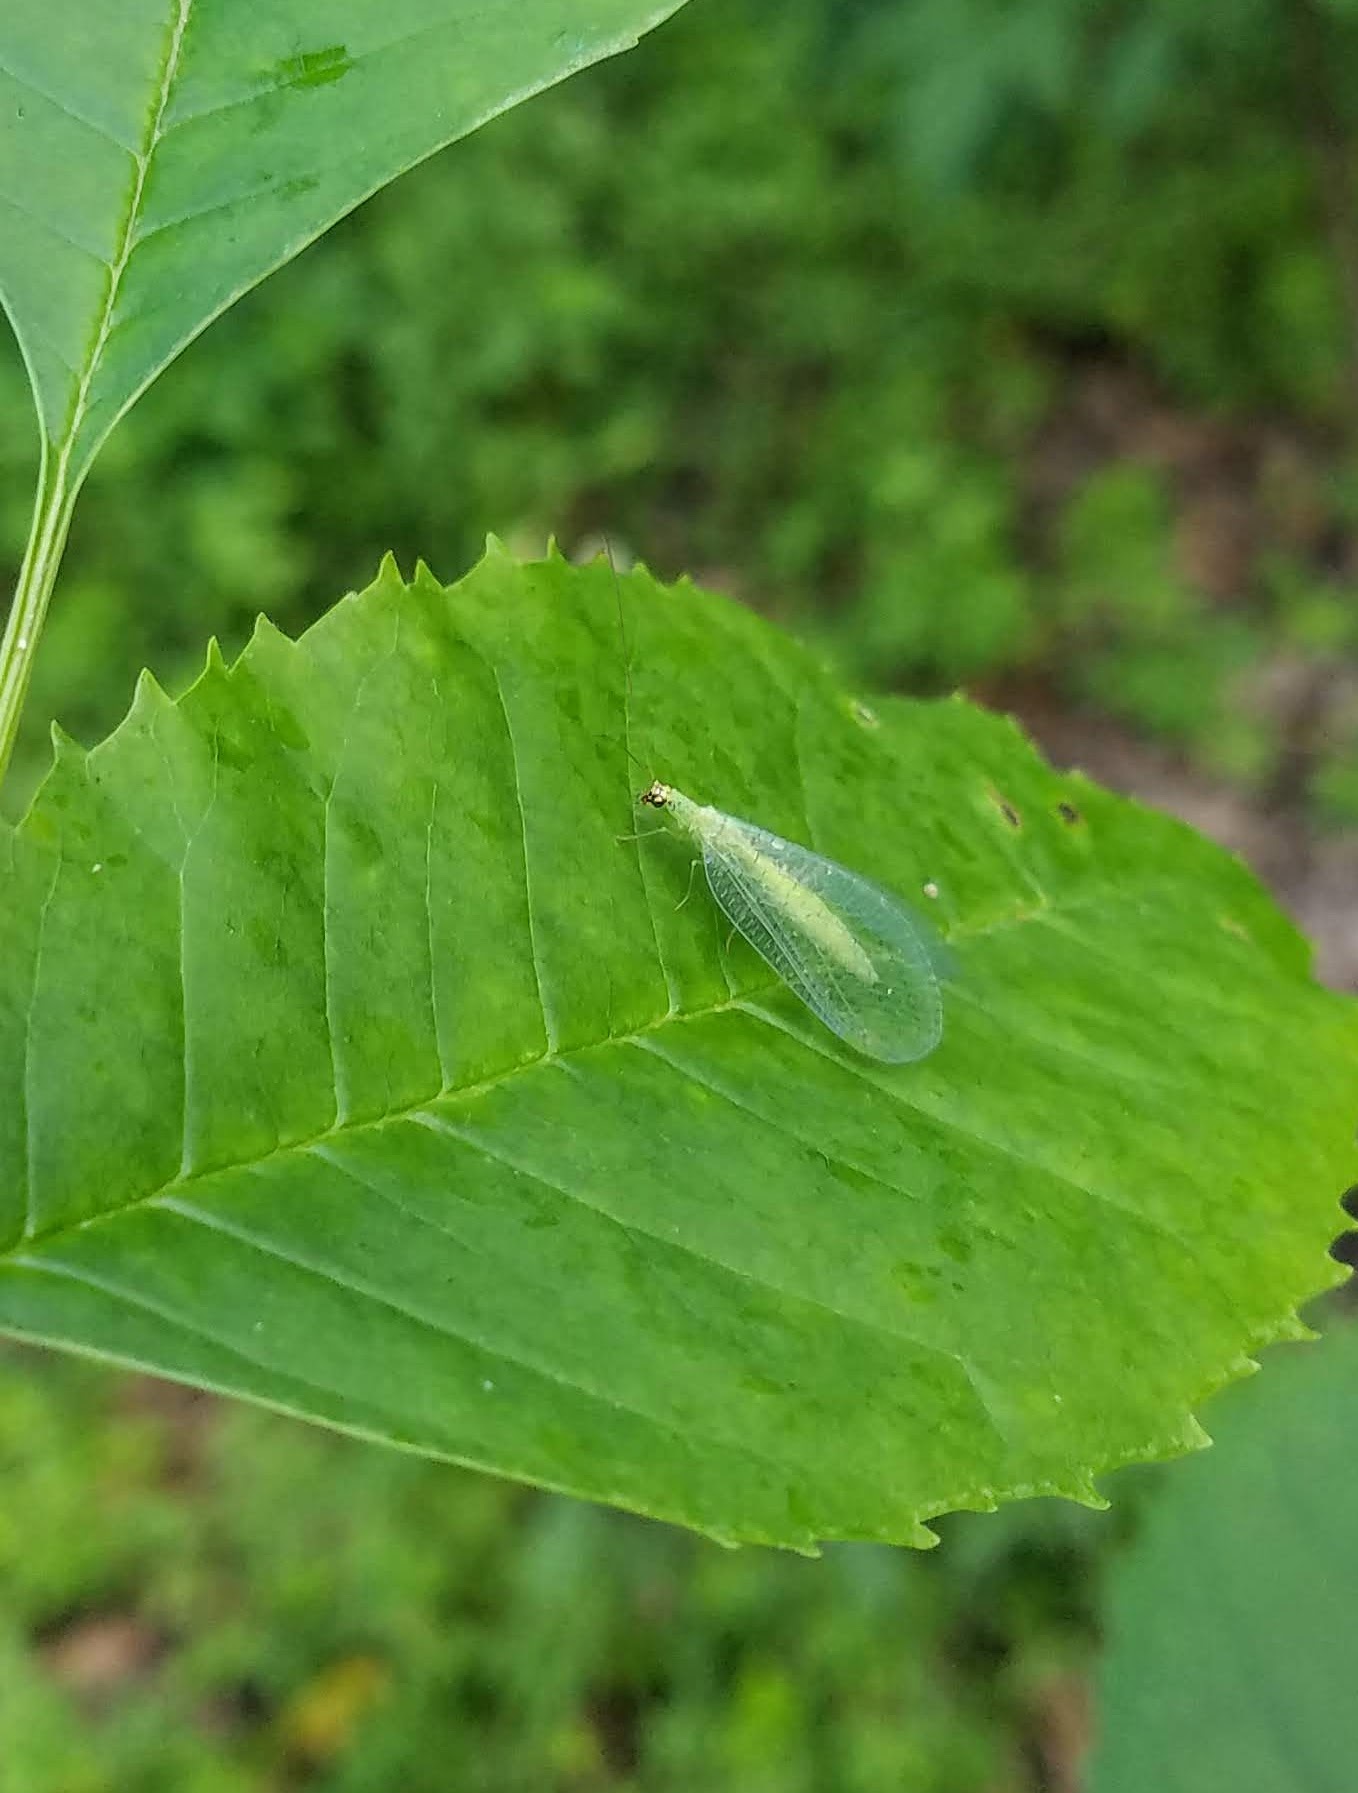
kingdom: Animalia
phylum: Arthropoda
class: Insecta
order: Neuroptera
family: Chrysopidae
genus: Chrysopa
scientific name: Chrysopa oculata
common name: Golden-eyed lacewing
